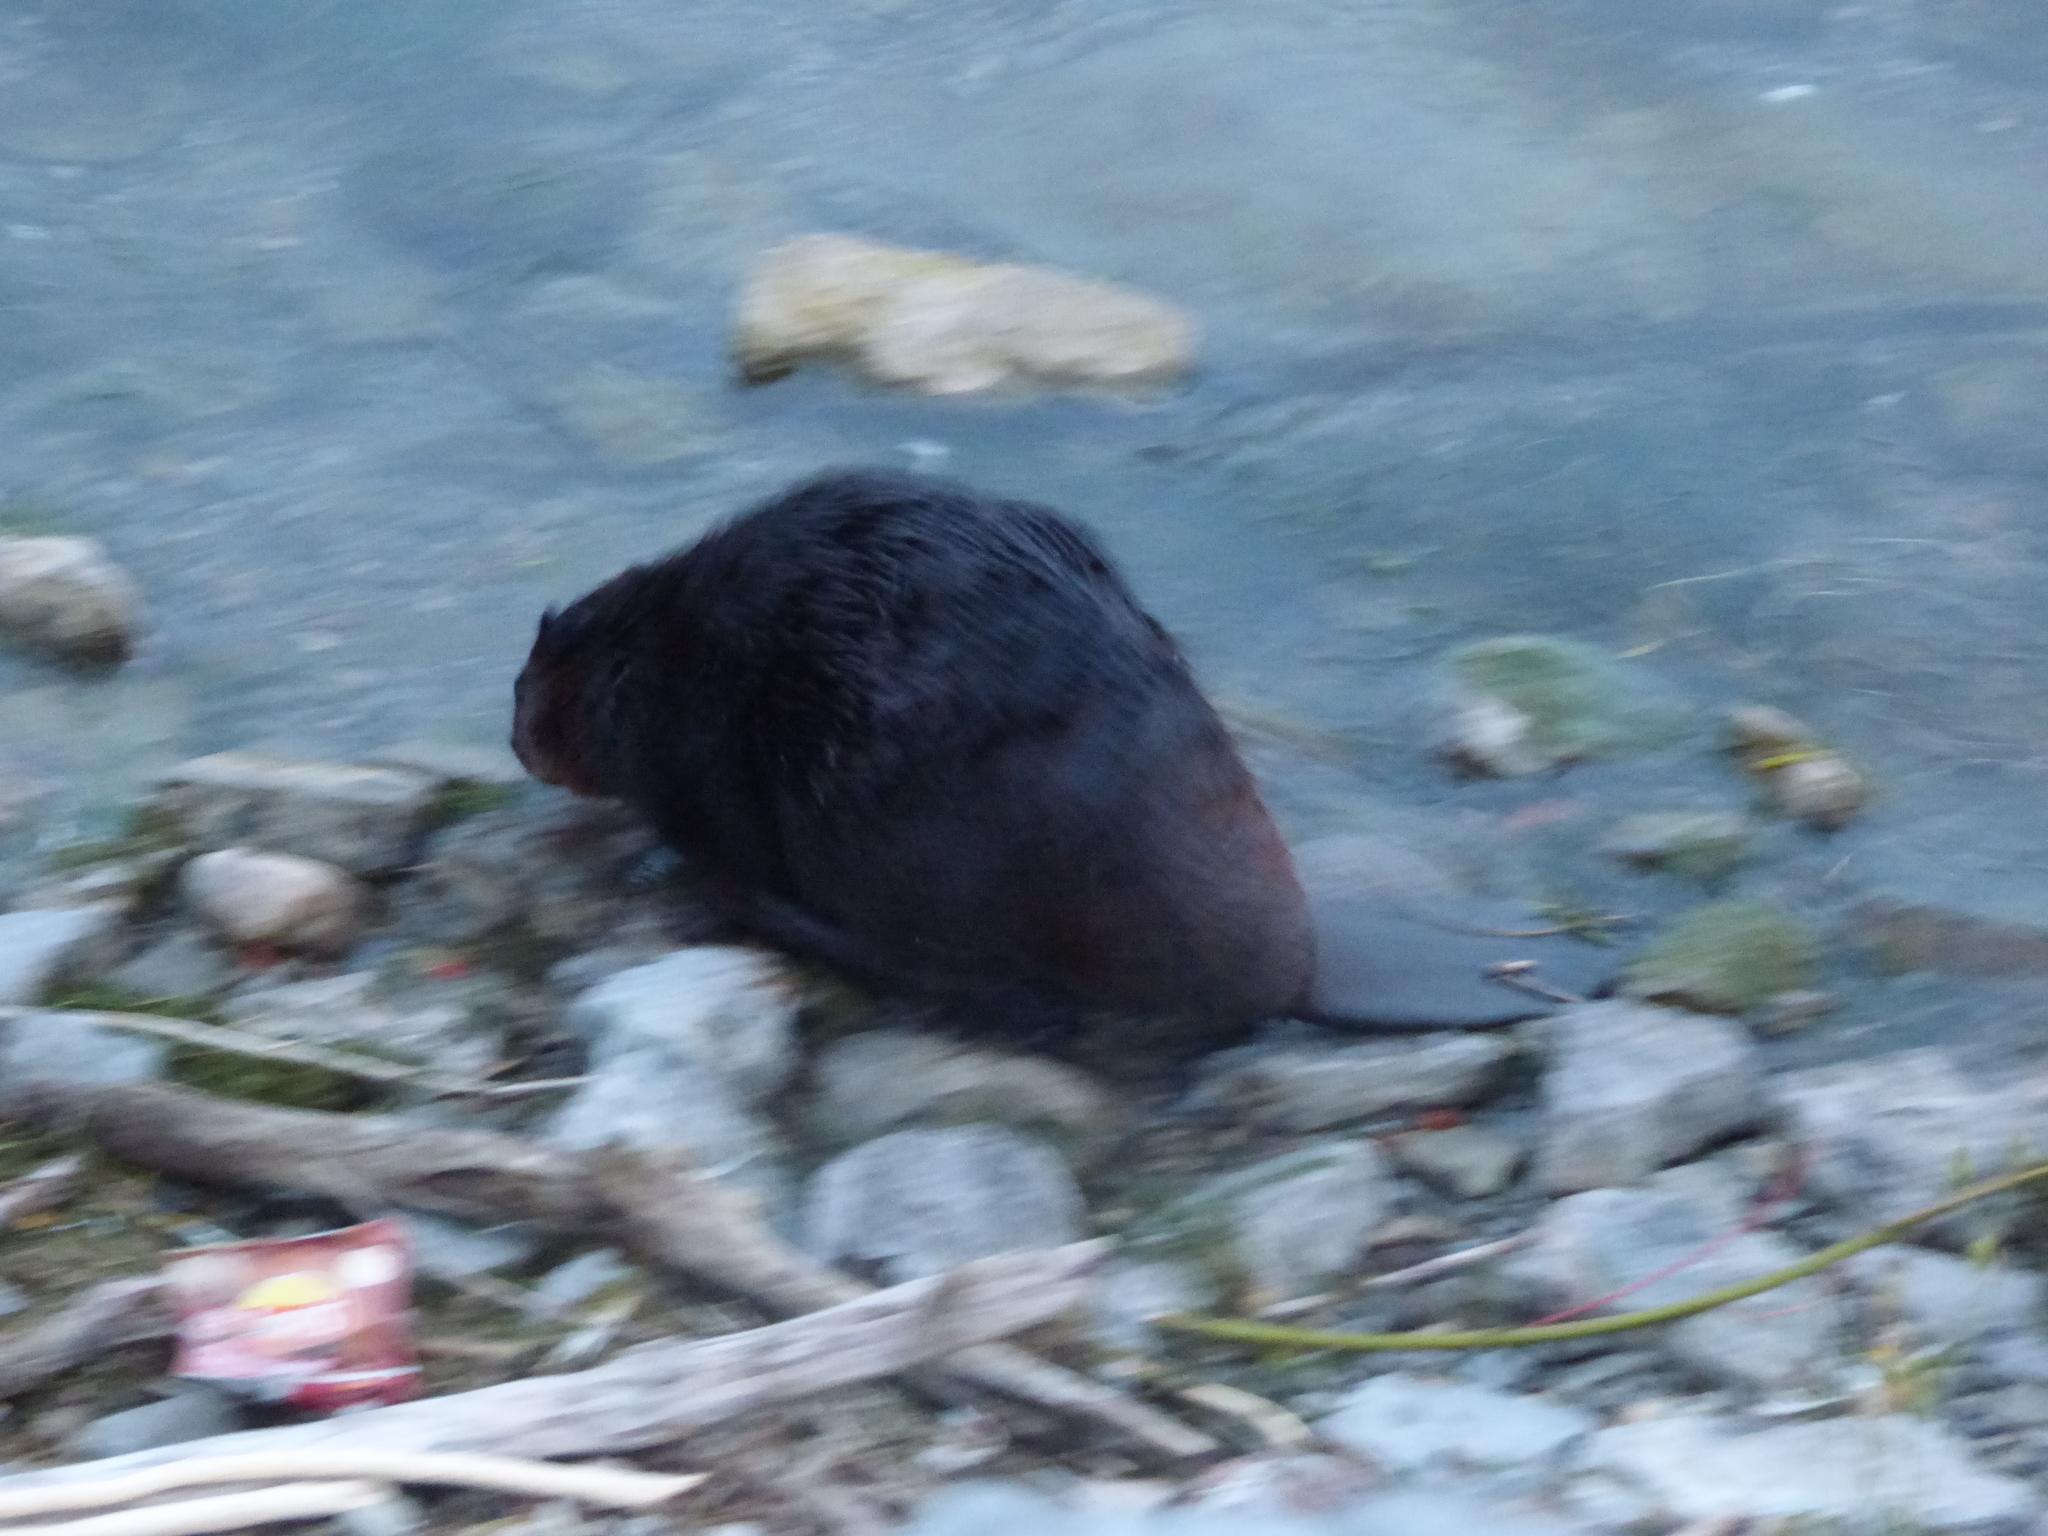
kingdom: Animalia
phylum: Chordata
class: Mammalia
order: Rodentia
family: Castoridae
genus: Castor
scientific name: Castor canadensis
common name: American beaver
